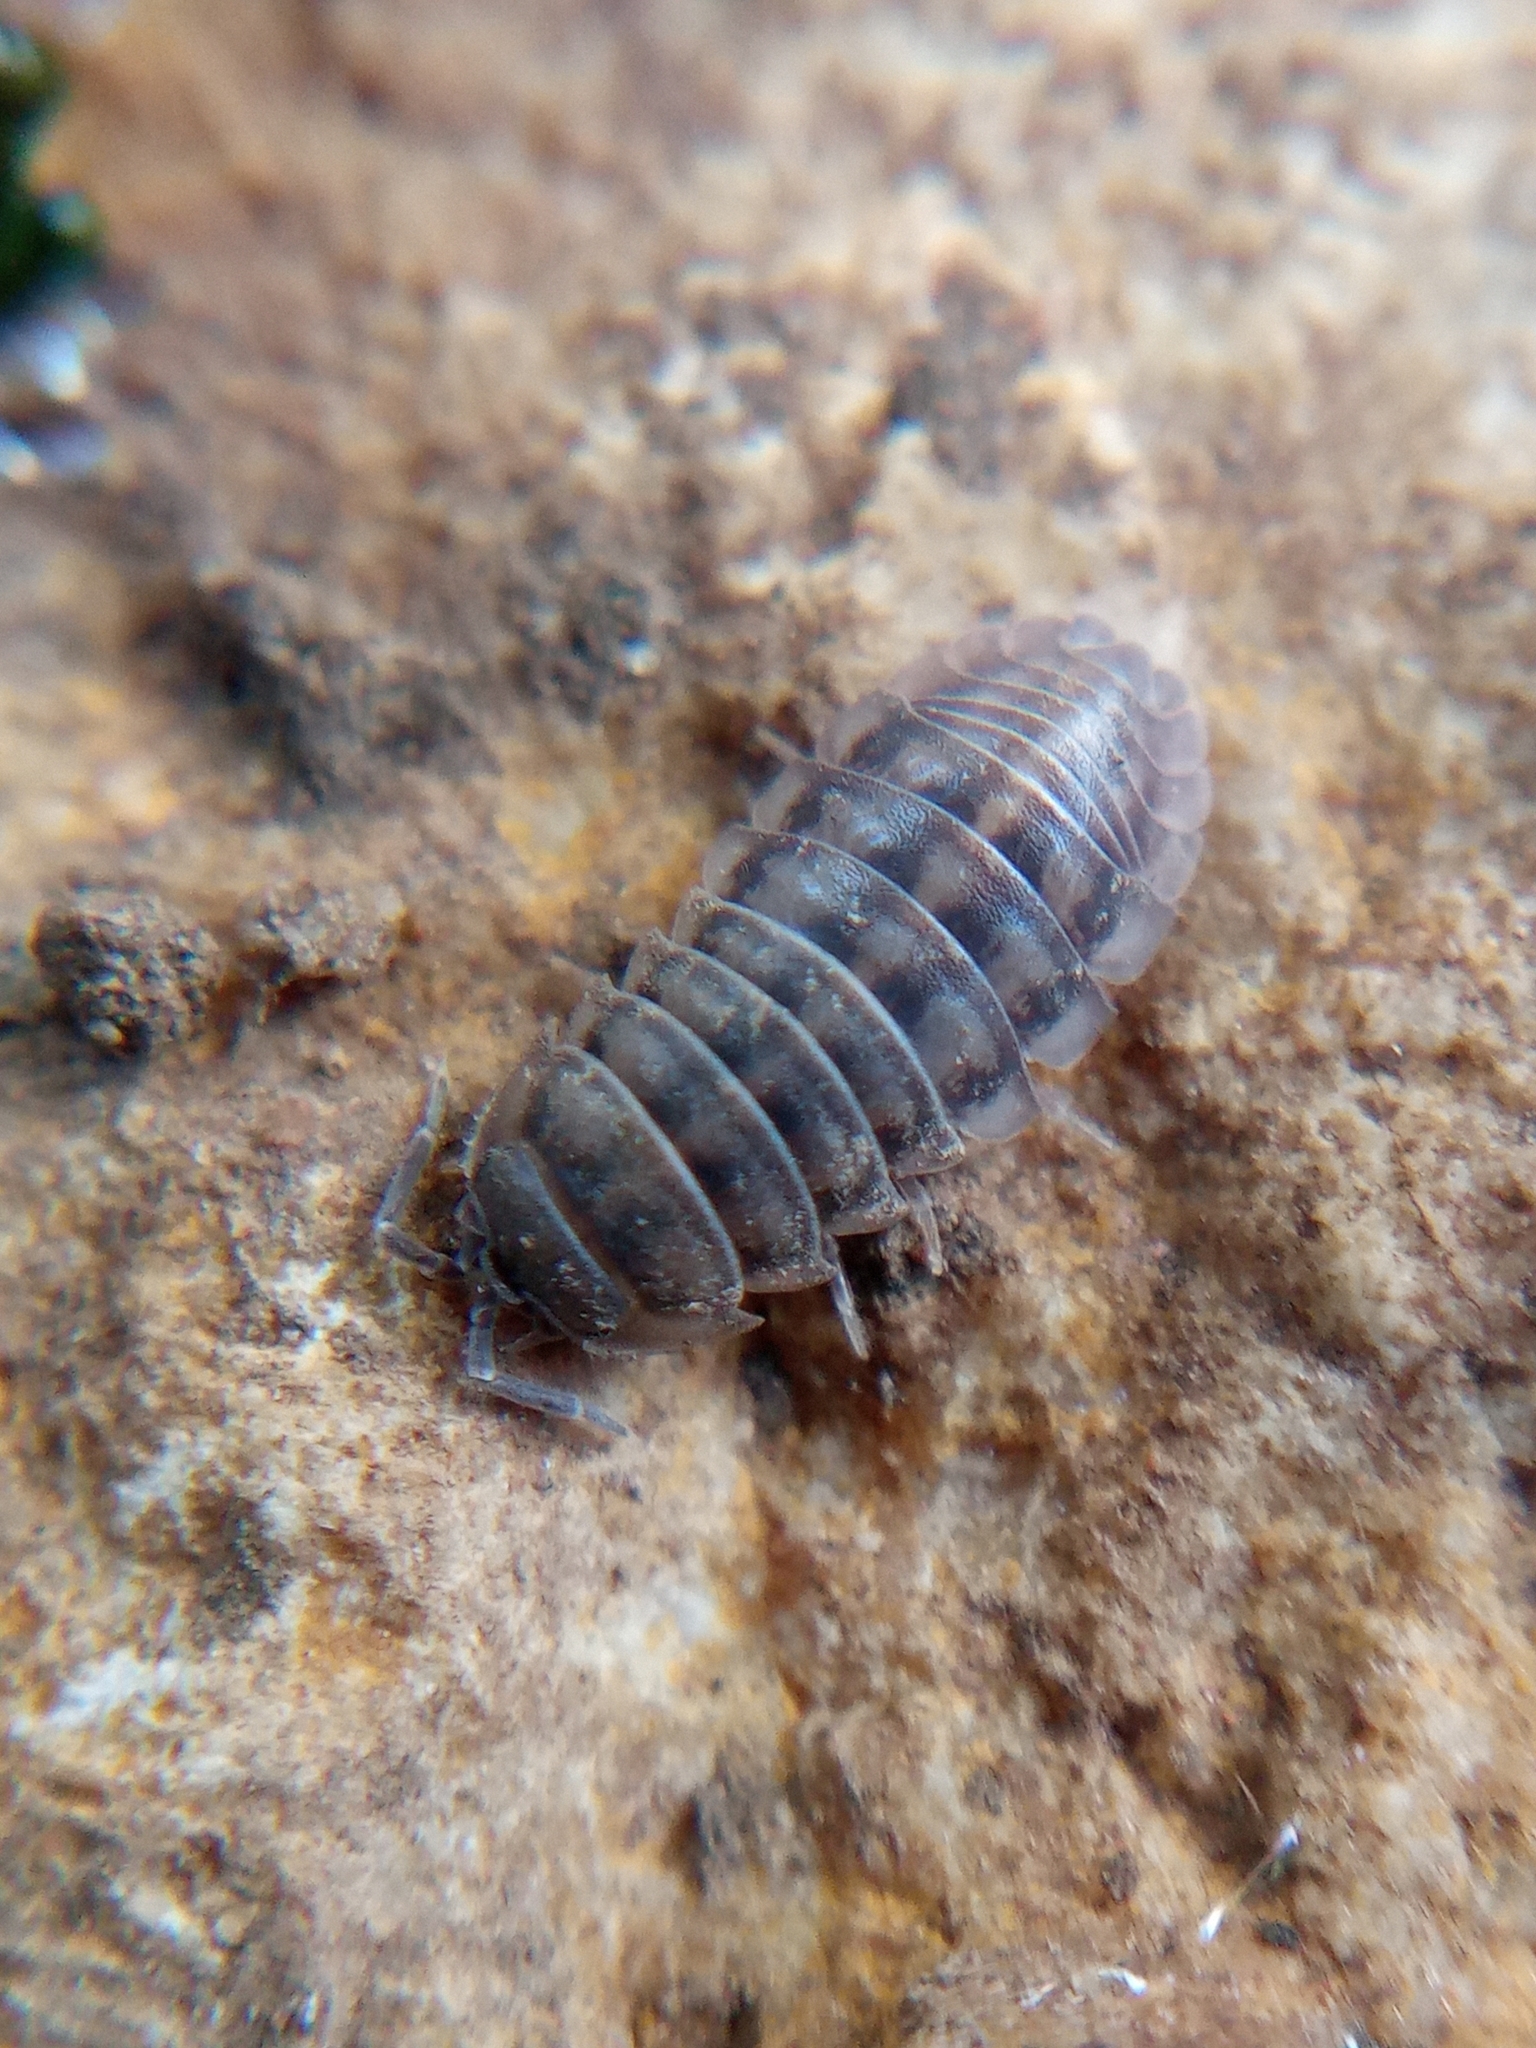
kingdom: Animalia
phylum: Arthropoda
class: Malacostraca
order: Isopoda
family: Armadillidiidae
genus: Armadillidium
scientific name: Armadillidium nasatum
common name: Isopod
